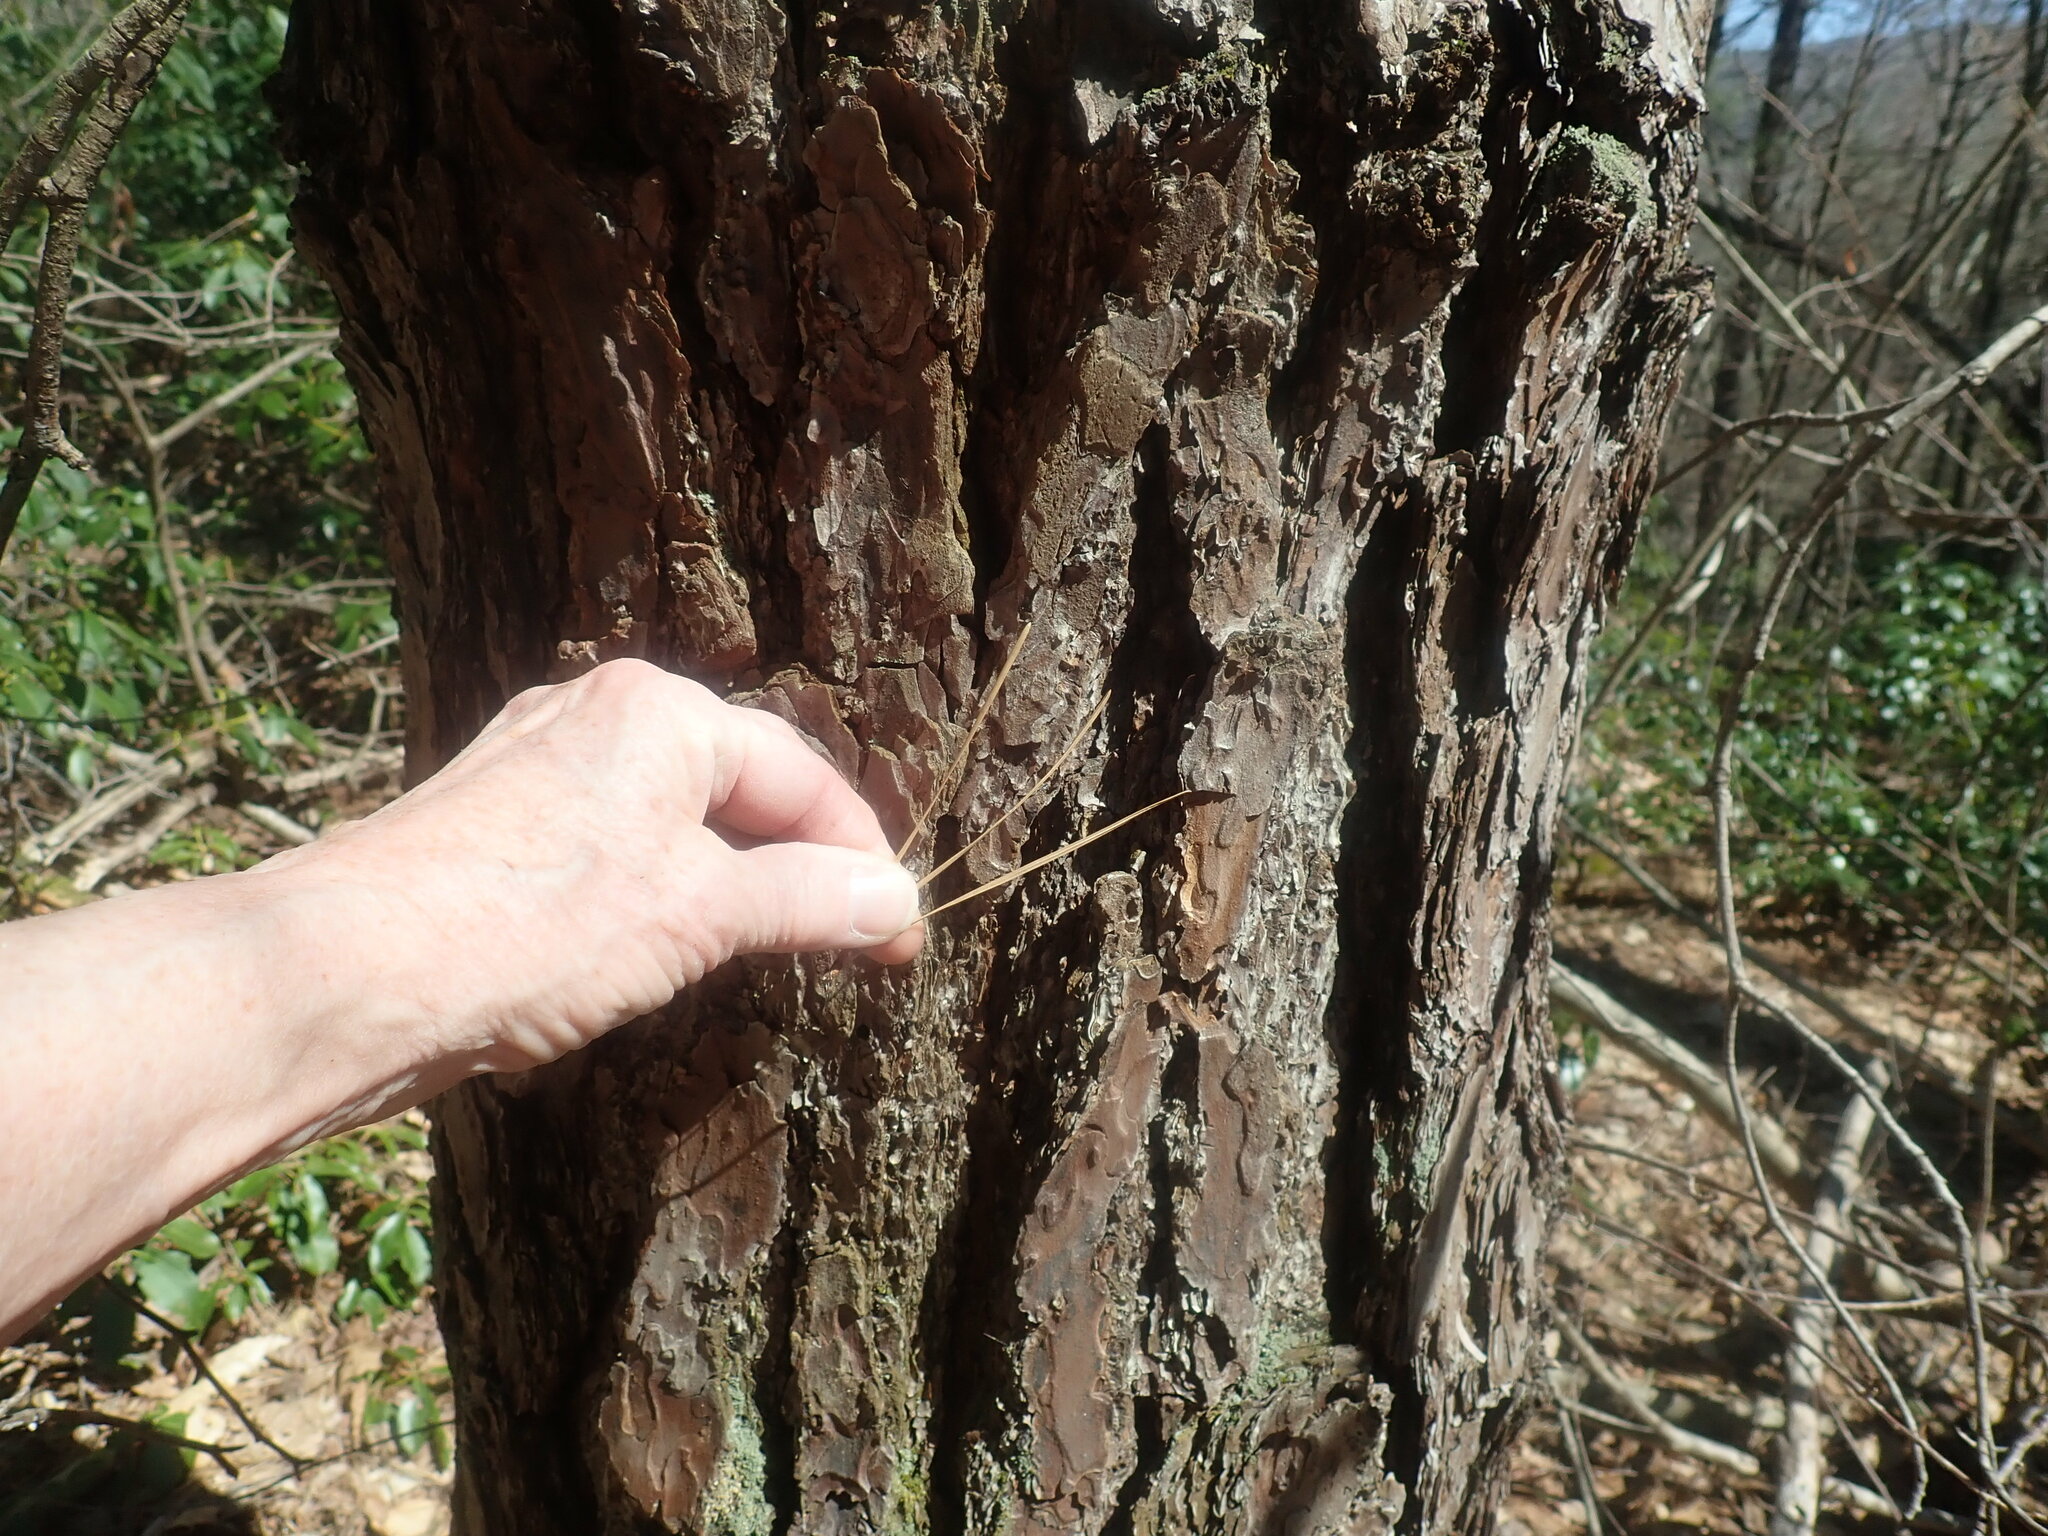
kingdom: Plantae
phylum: Tracheophyta
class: Pinopsida
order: Pinales
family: Pinaceae
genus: Pinus
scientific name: Pinus rigida
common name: Pitch pine
